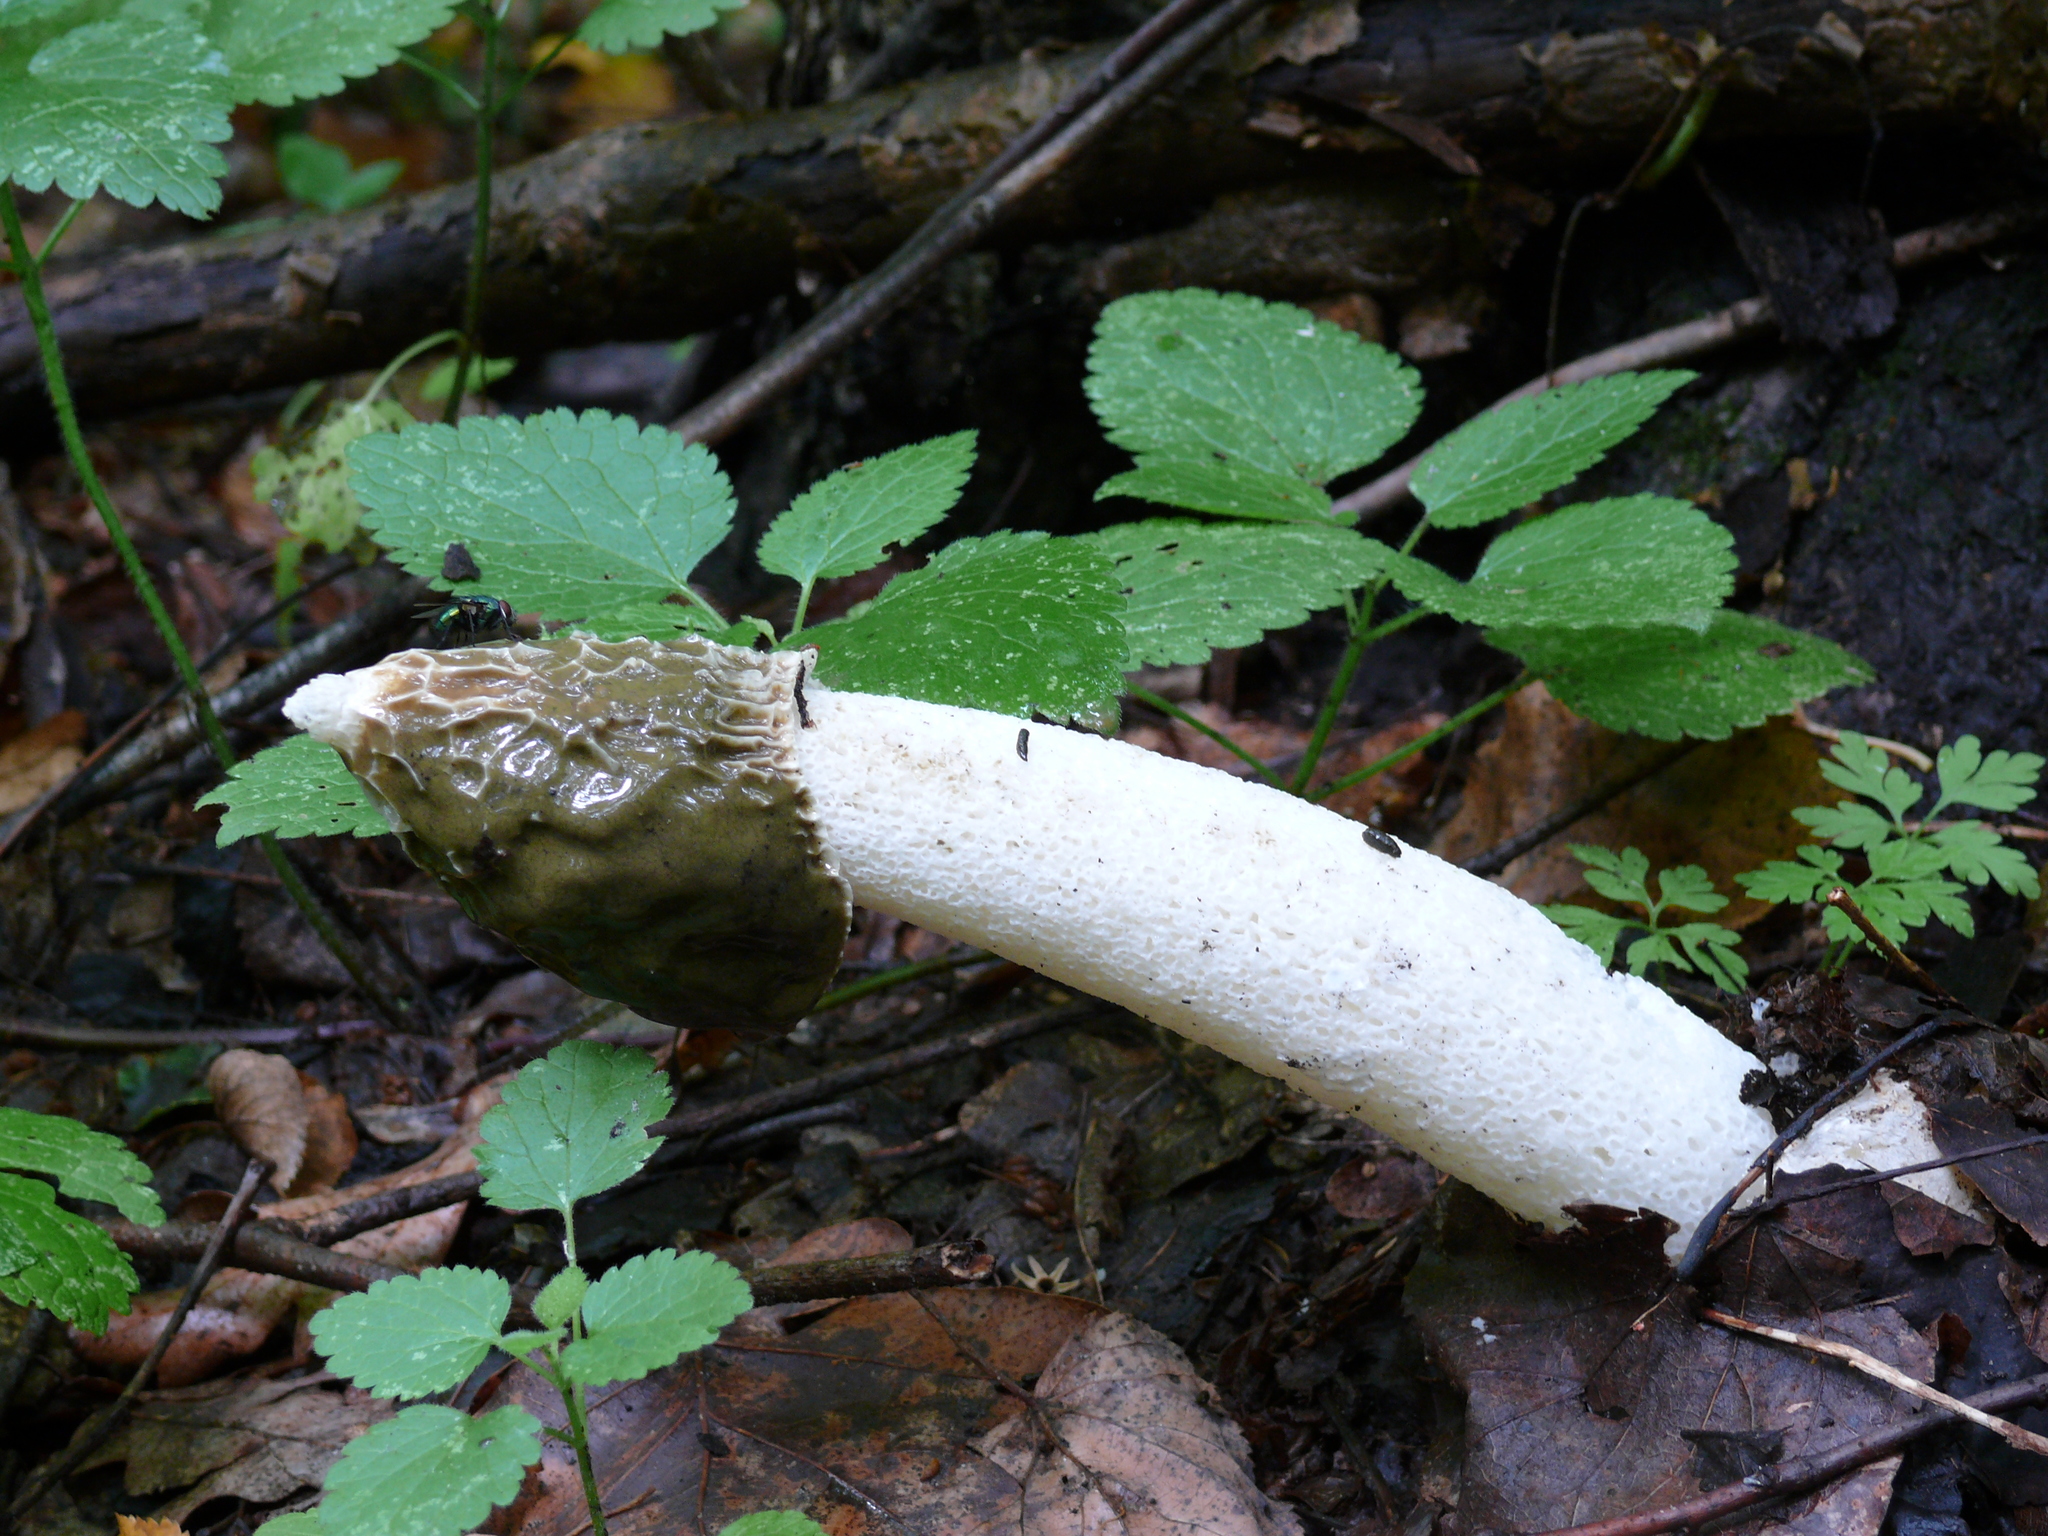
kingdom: Fungi
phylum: Basidiomycota
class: Agaricomycetes
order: Phallales
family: Phallaceae
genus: Phallus
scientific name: Phallus impudicus
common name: Common stinkhorn
